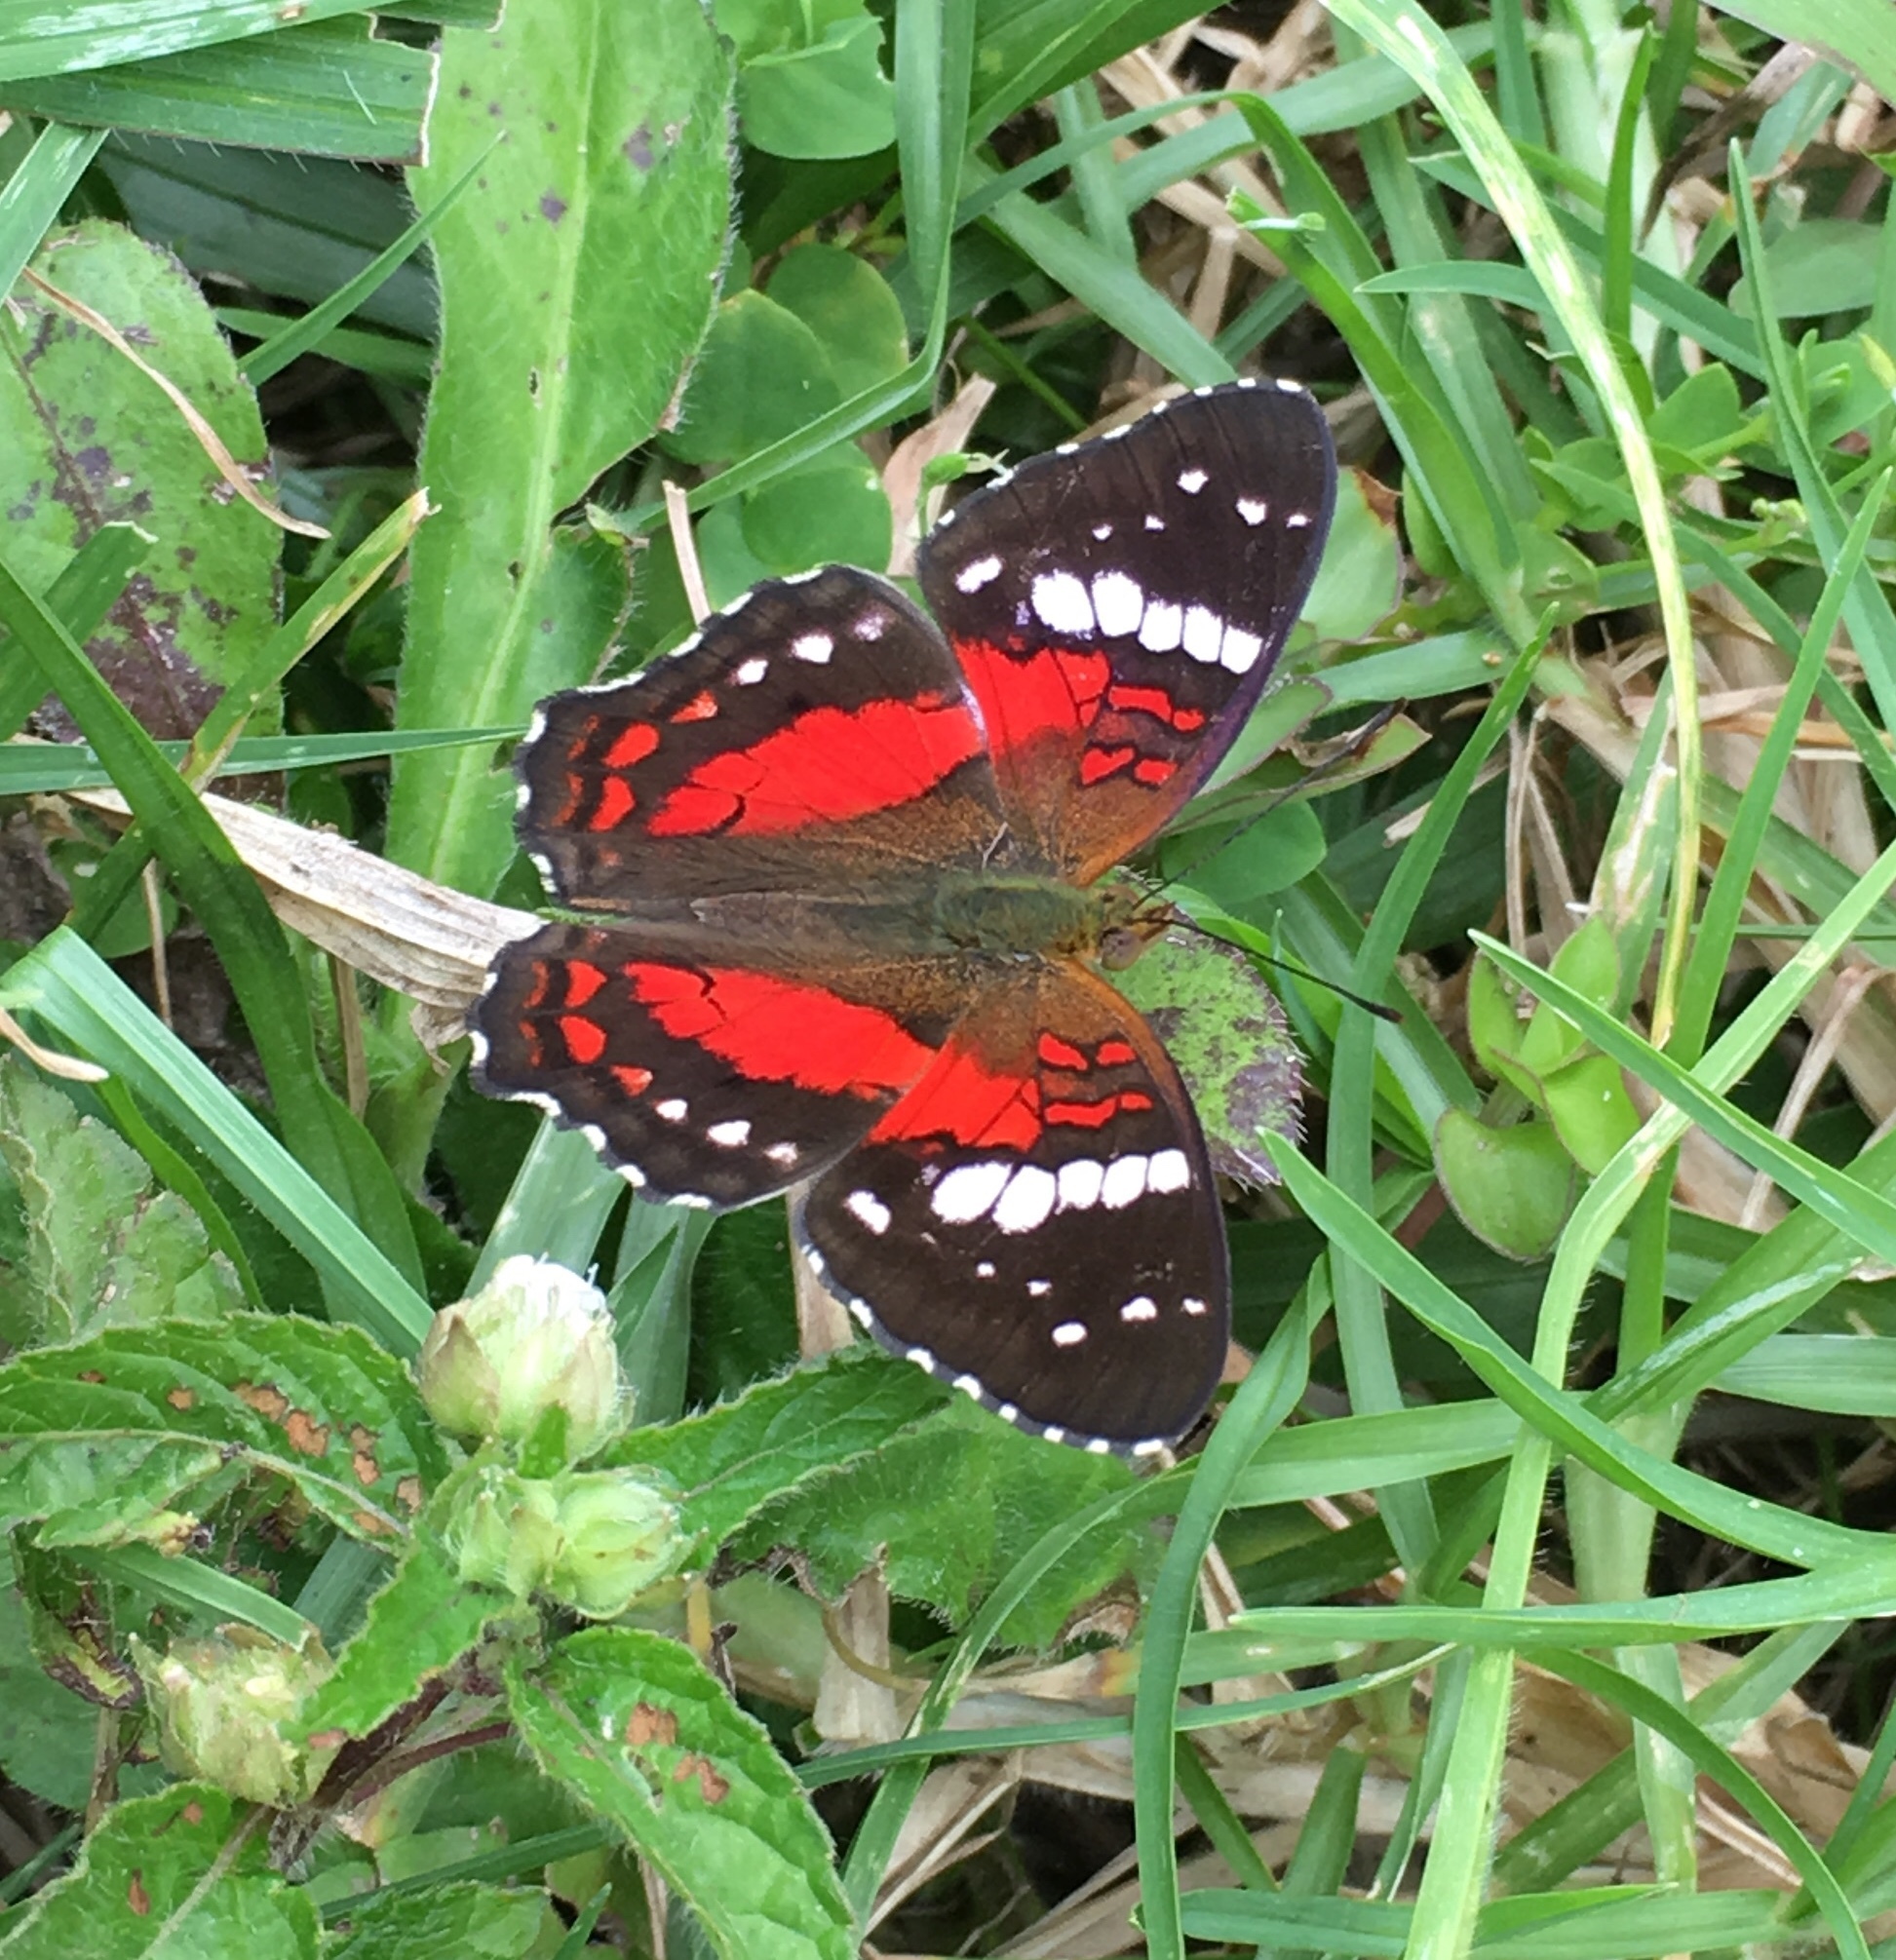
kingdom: Animalia
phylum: Arthropoda
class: Insecta
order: Lepidoptera
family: Nymphalidae
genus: Anartia
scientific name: Anartia amathea
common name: Red peacock
